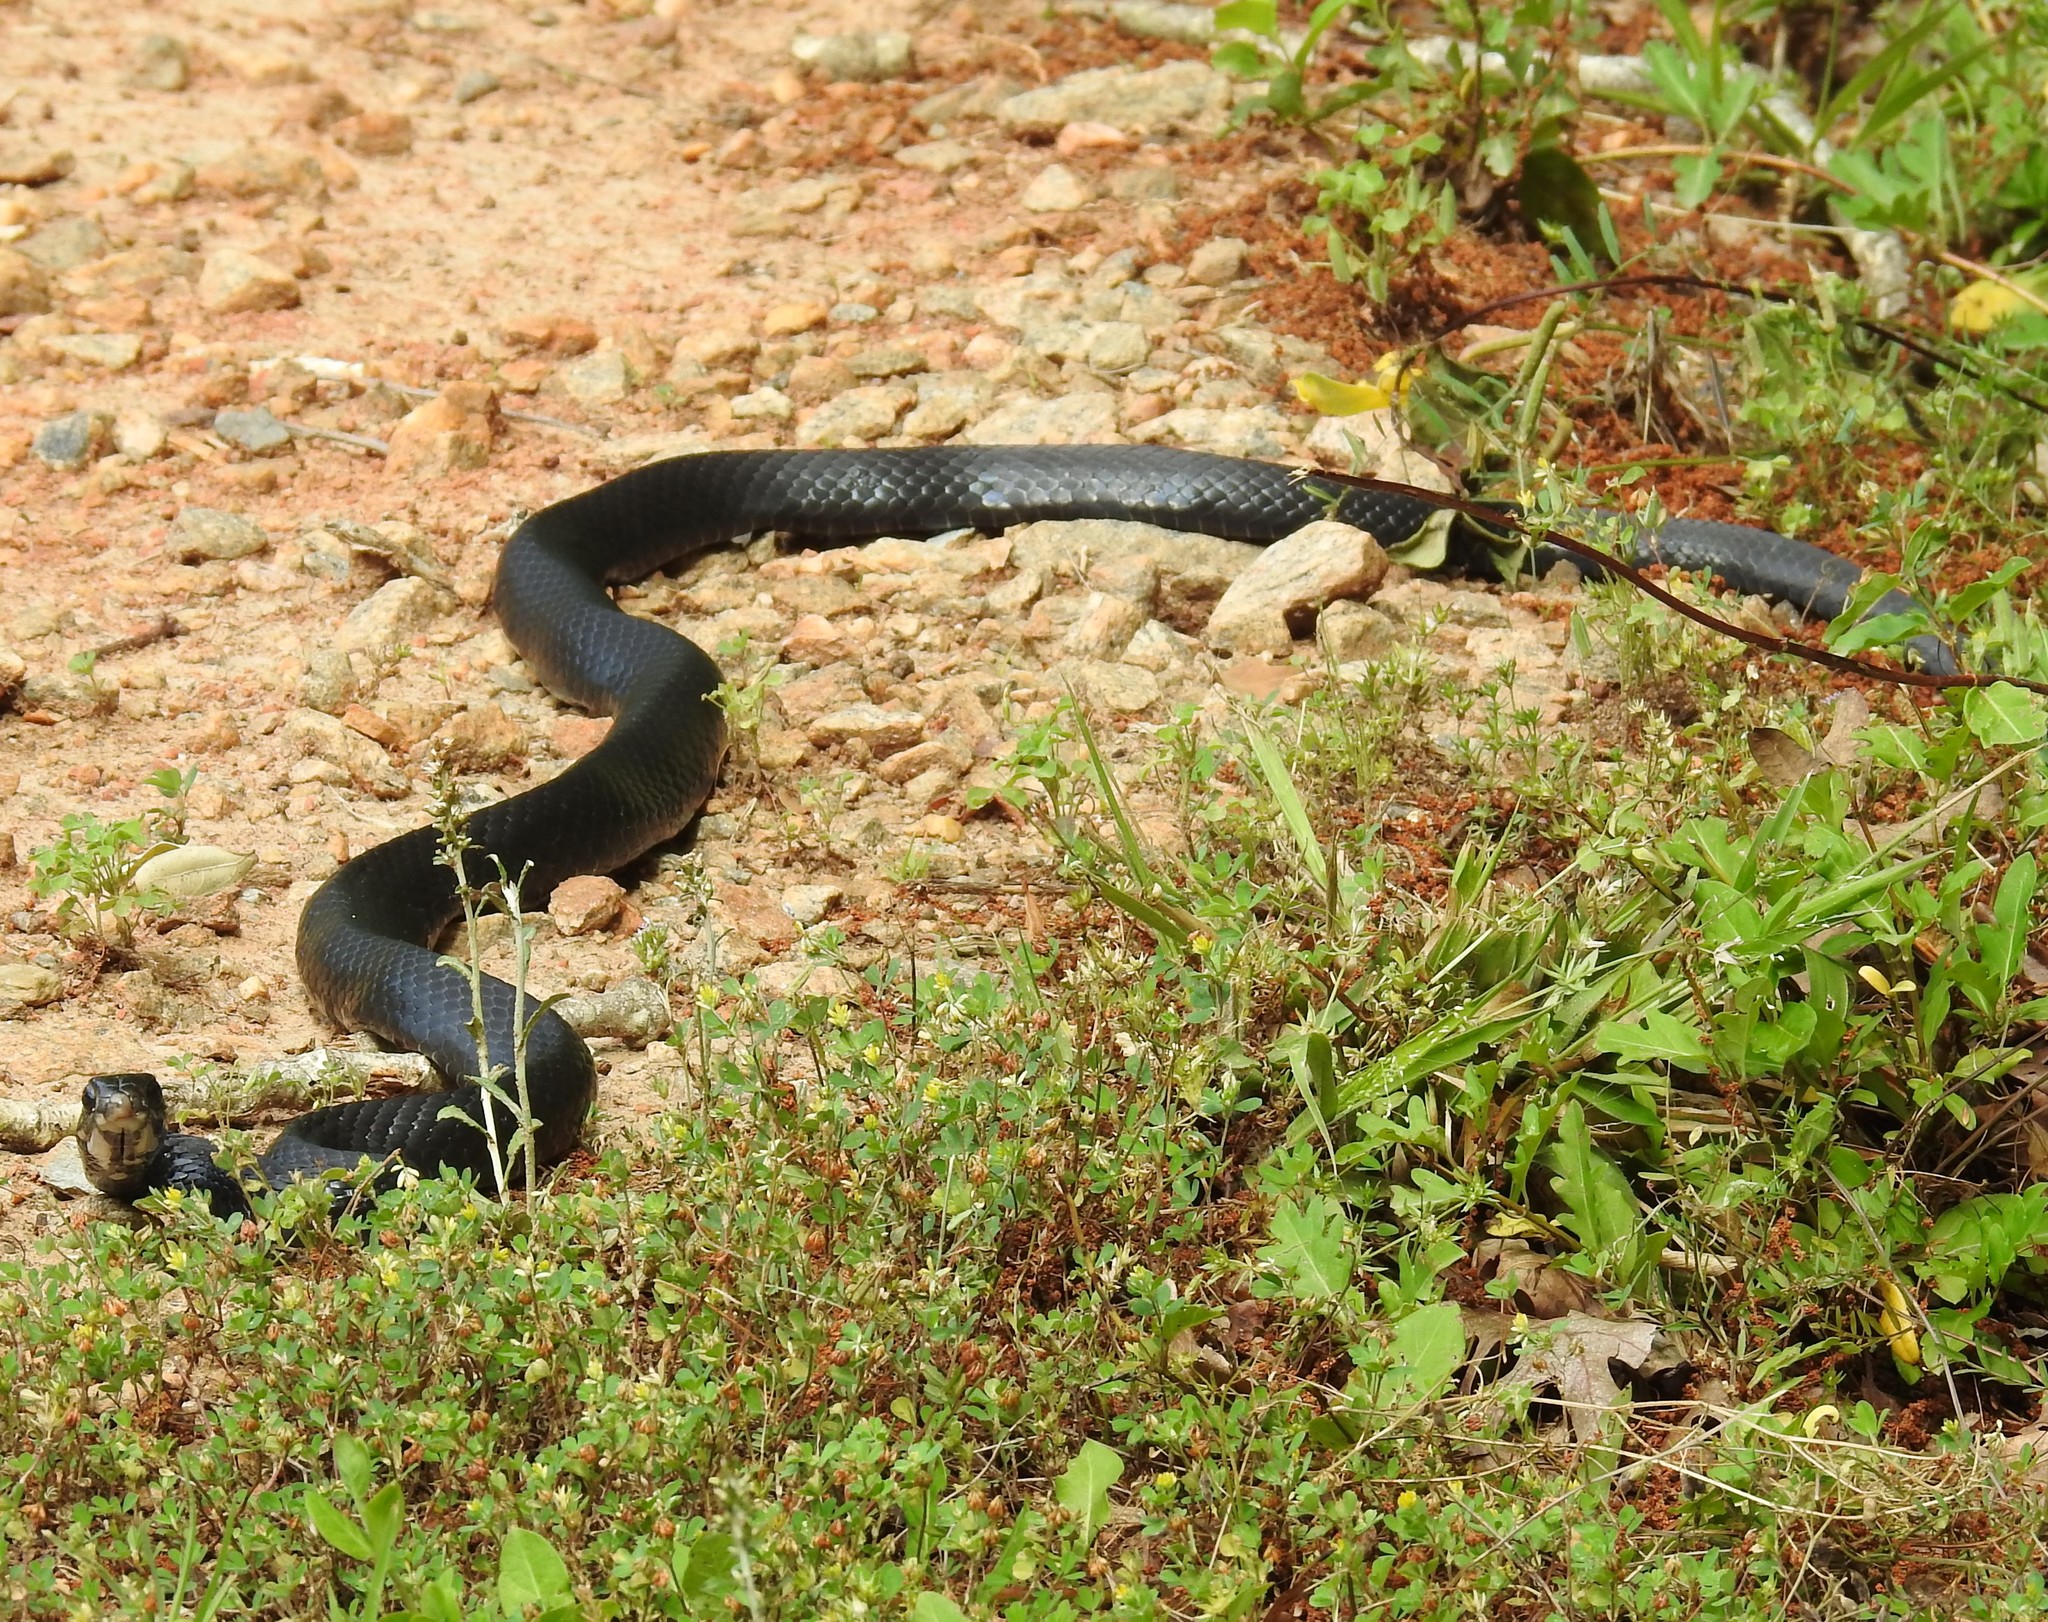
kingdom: Animalia
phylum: Chordata
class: Squamata
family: Colubridae
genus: Coluber
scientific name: Coluber constrictor
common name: Eastern racer
